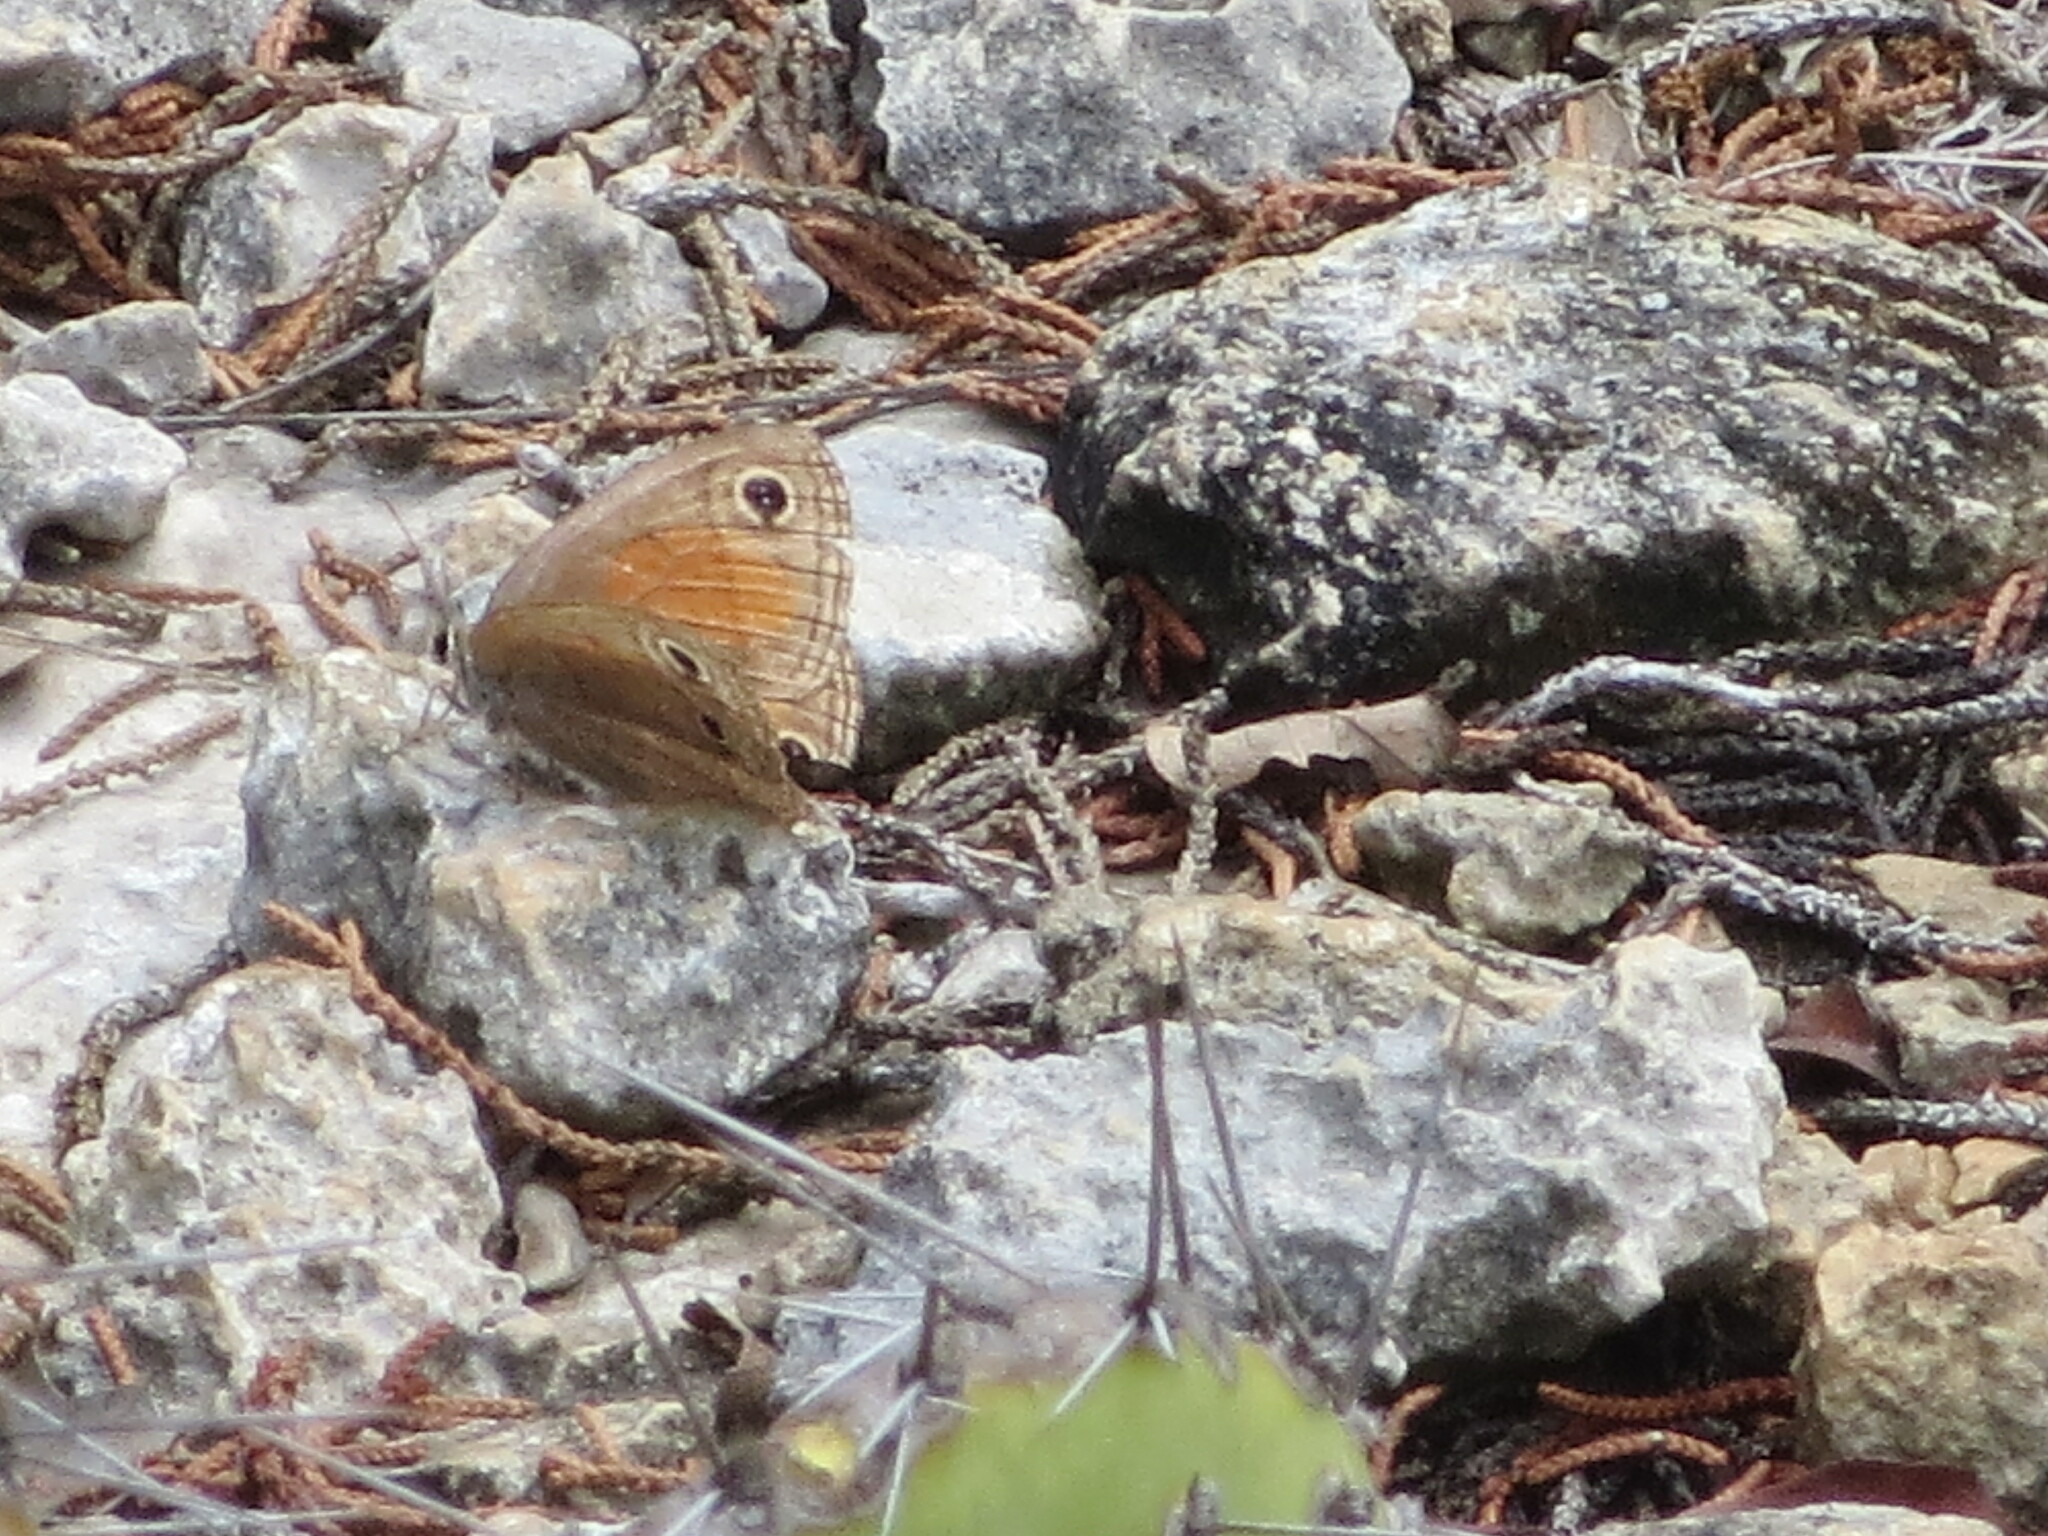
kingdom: Animalia
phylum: Arthropoda
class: Insecta
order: Lepidoptera
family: Nymphalidae
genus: Euptychia
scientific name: Euptychia Cissia rubricata
